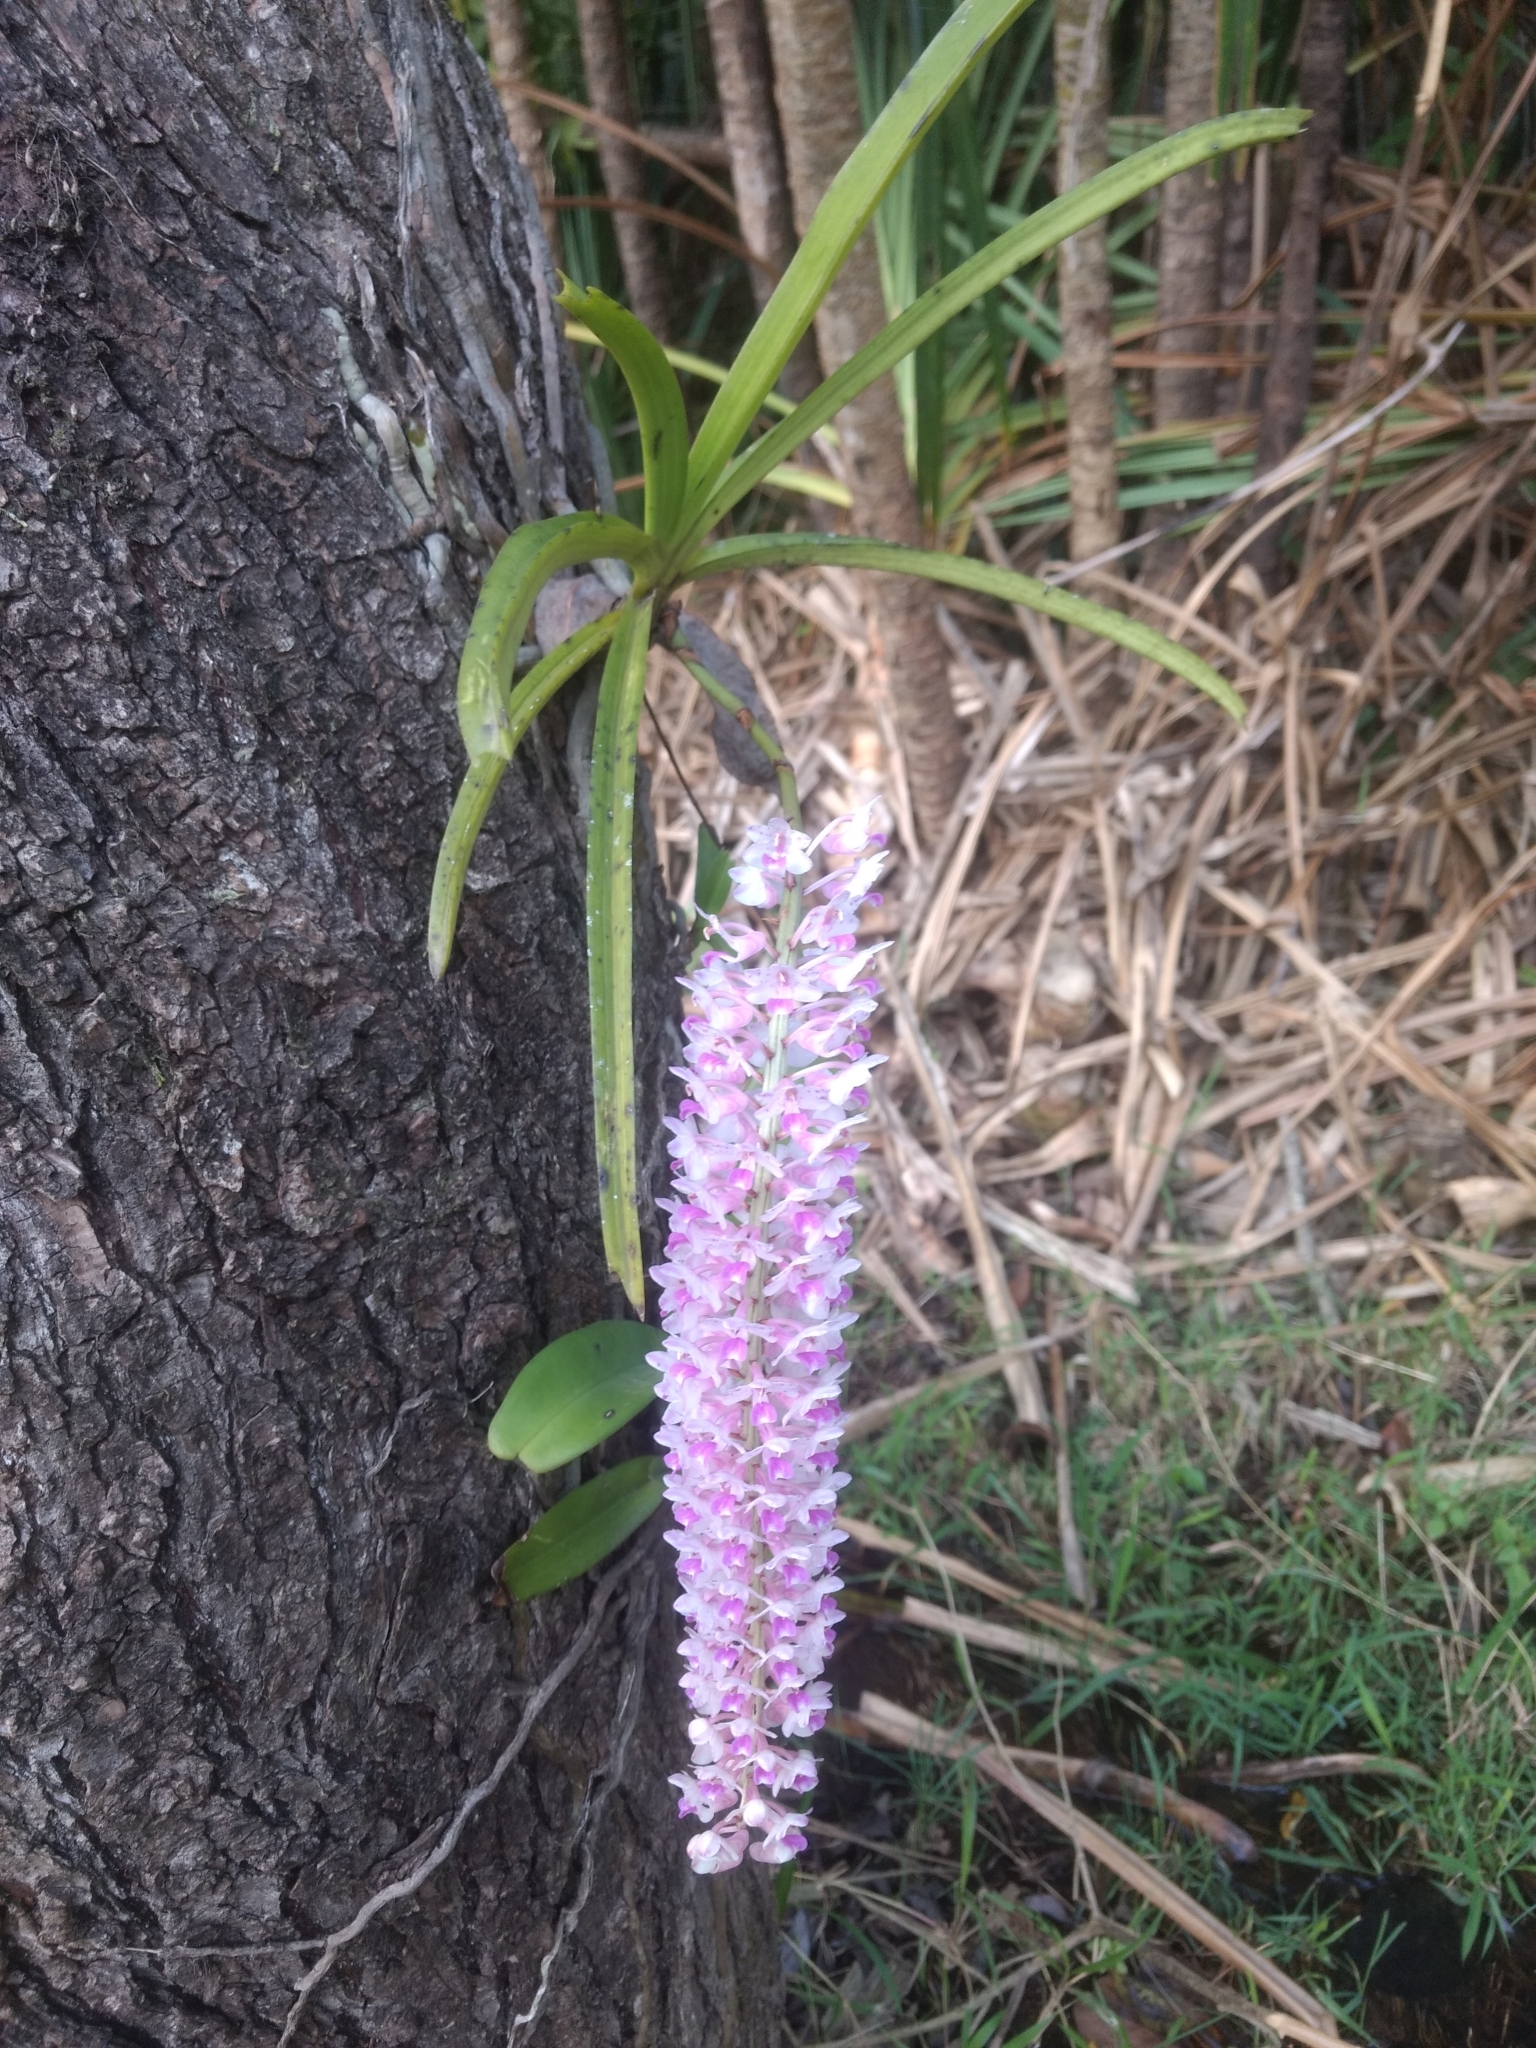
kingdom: Plantae
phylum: Tracheophyta
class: Liliopsida
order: Asparagales
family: Orchidaceae
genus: Rhynchostylis
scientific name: Rhynchostylis retusa
